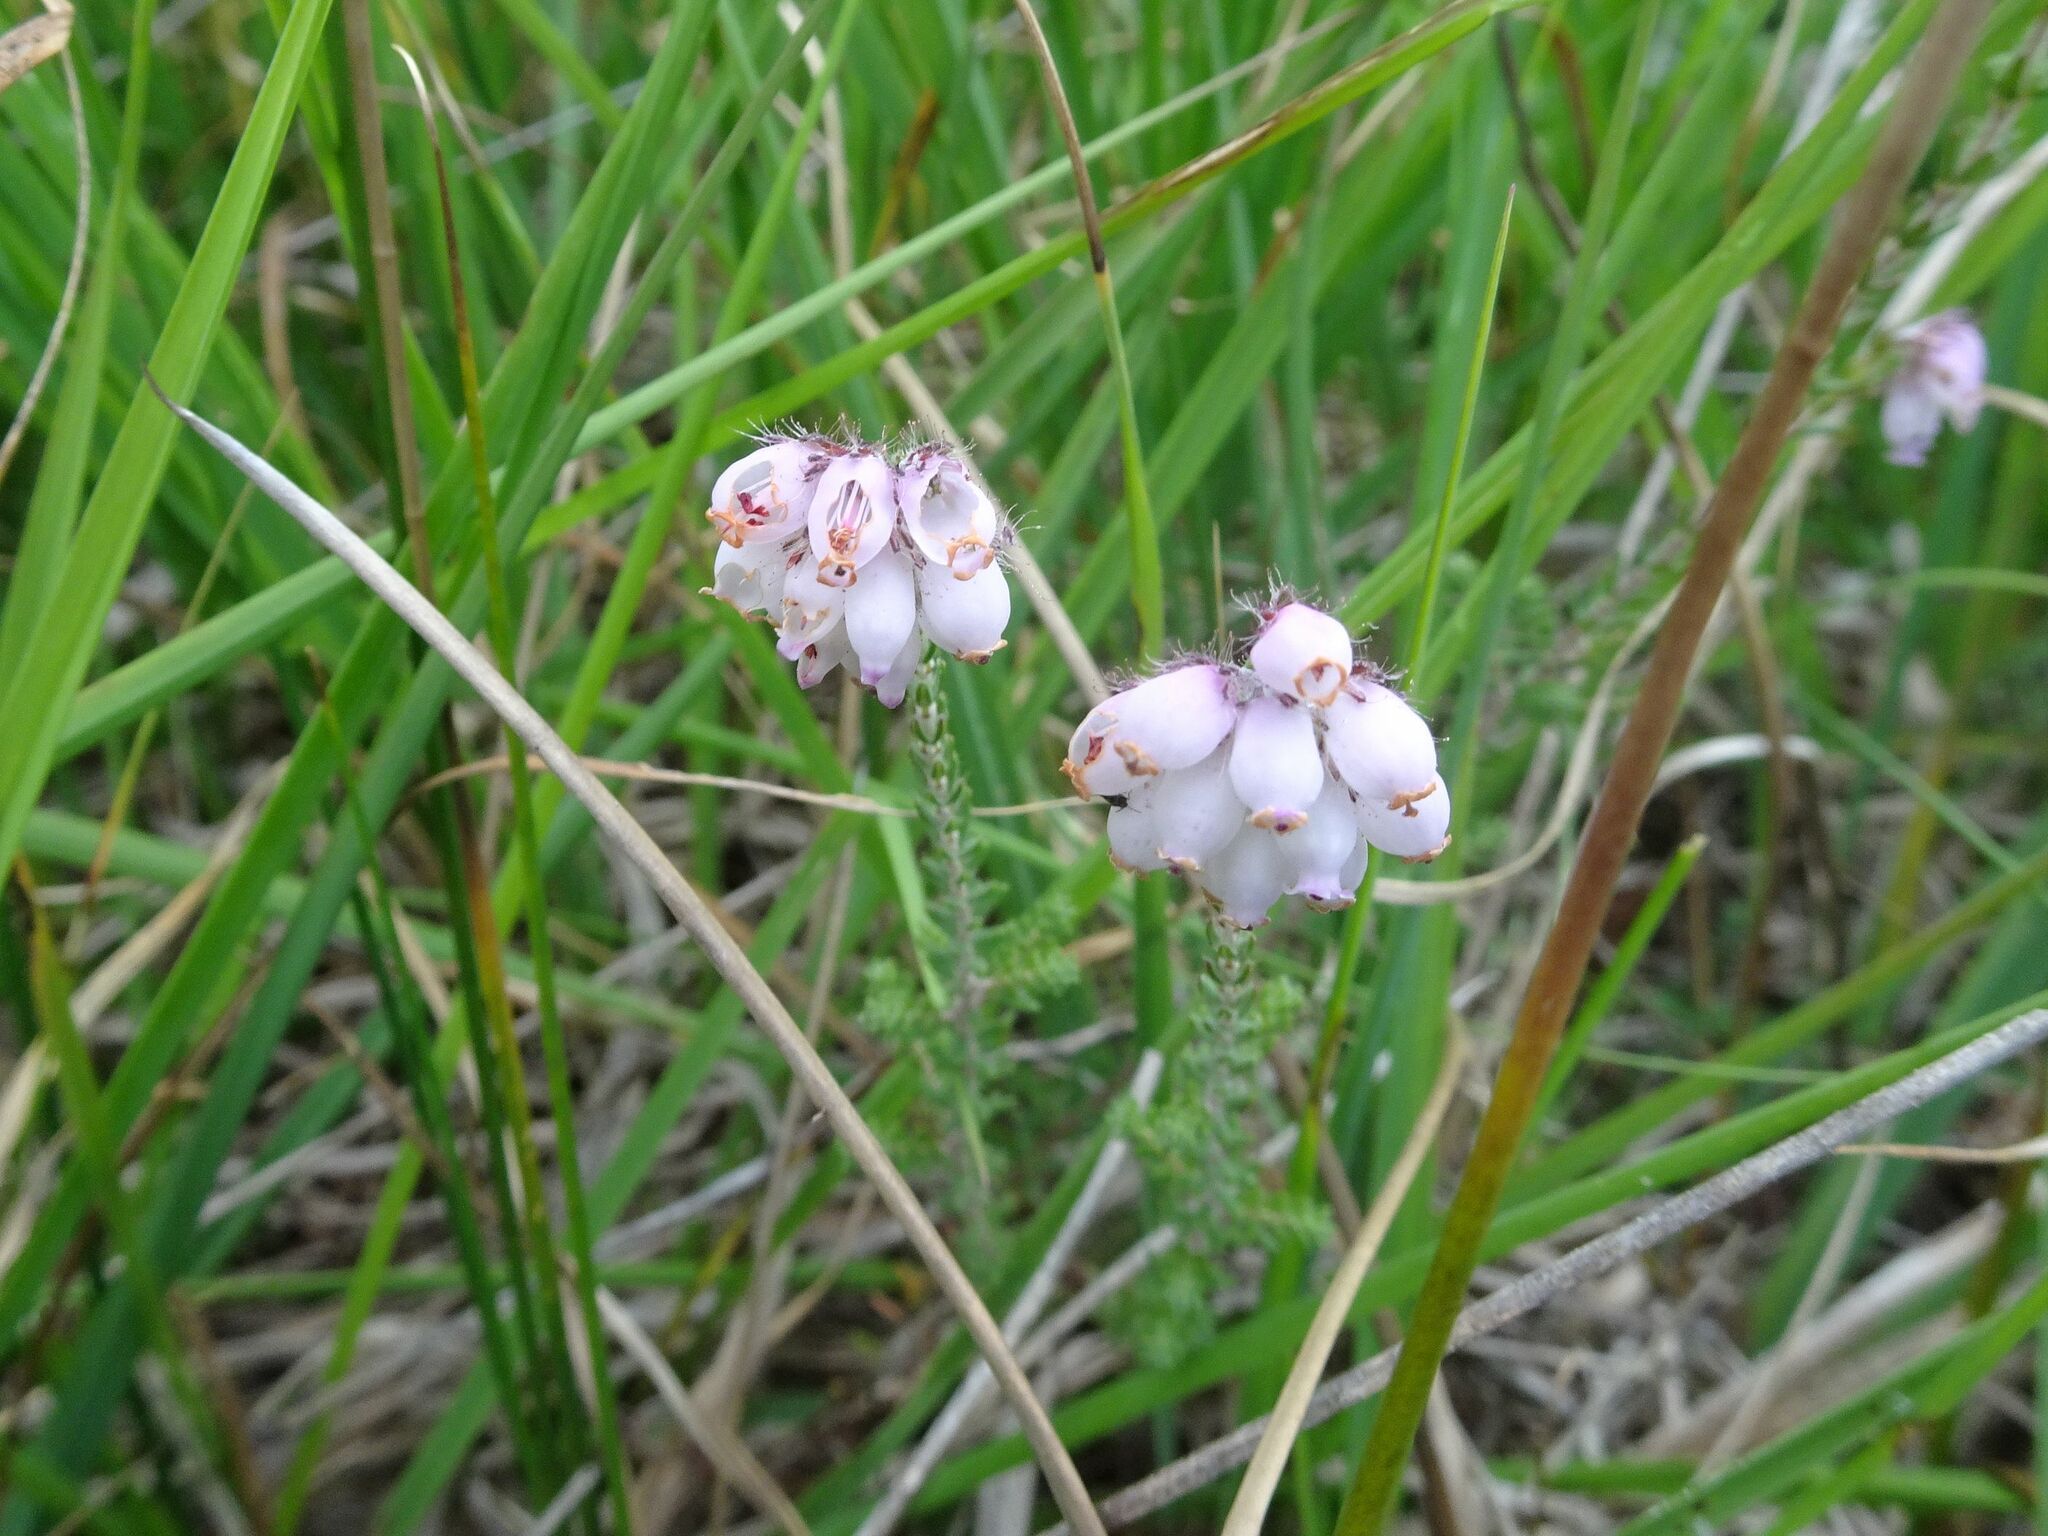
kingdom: Plantae
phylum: Tracheophyta
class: Magnoliopsida
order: Ericales
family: Ericaceae
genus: Erica
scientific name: Erica tetralix
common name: Cross-leaved heath
